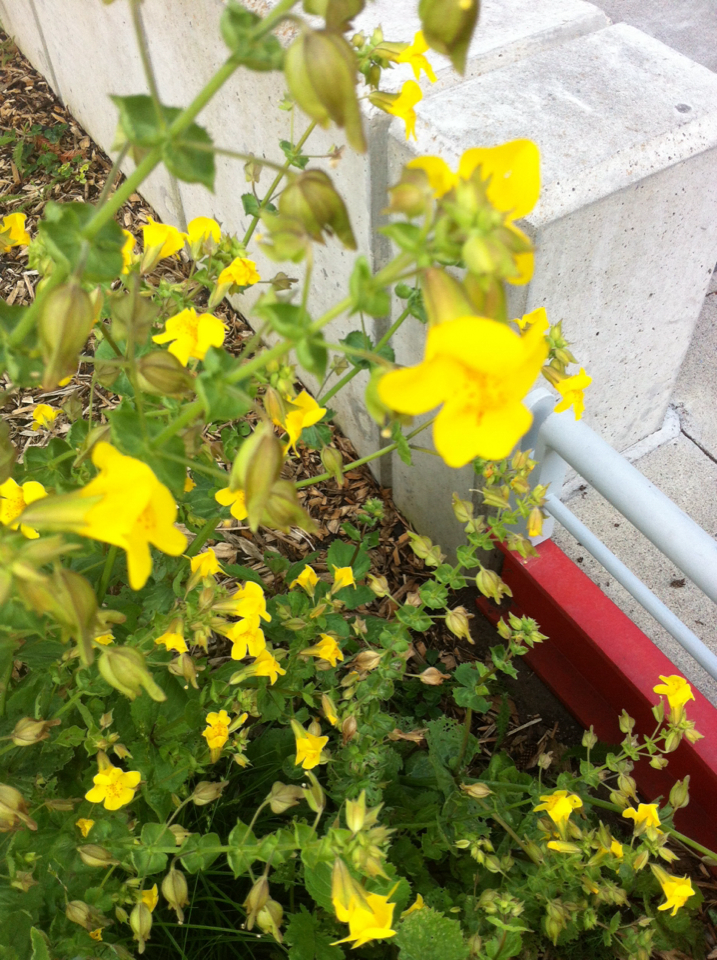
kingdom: Plantae
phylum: Tracheophyta
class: Magnoliopsida
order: Lamiales
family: Phrymaceae
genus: Erythranthe
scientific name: Erythranthe guttata
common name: Monkeyflower
